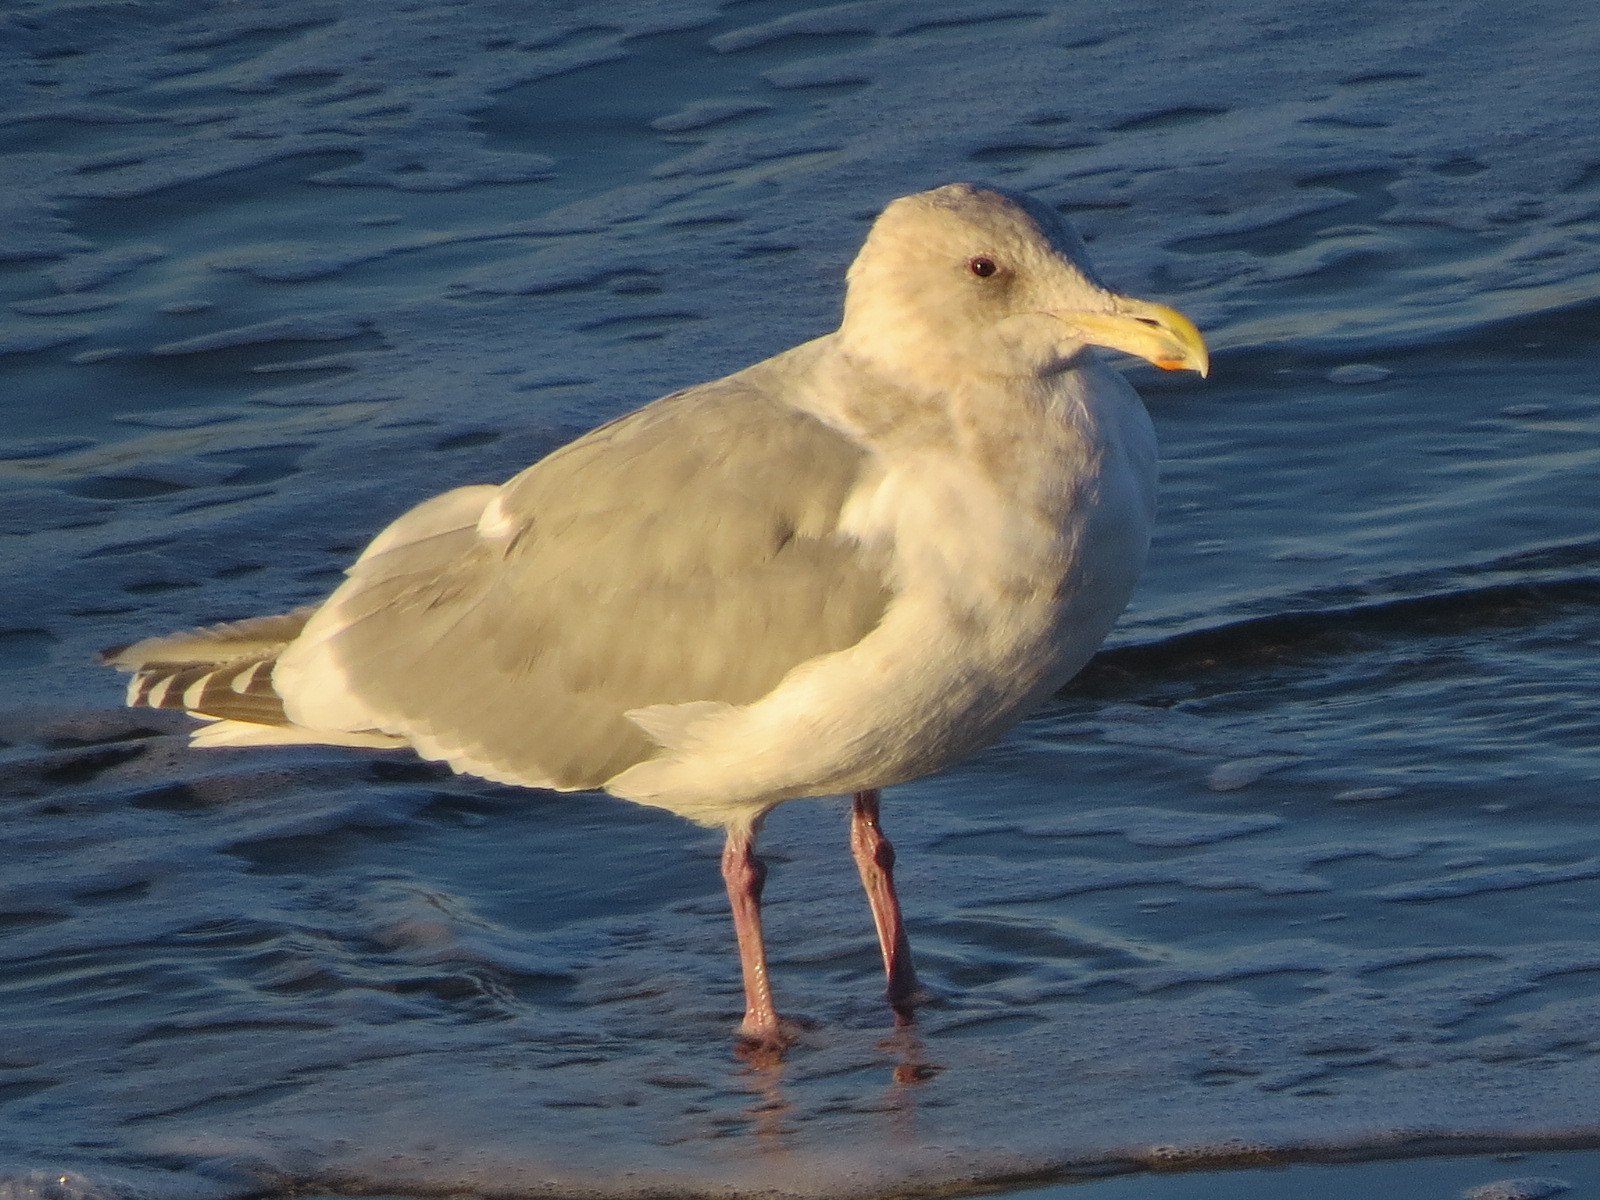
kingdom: Animalia
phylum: Chordata
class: Aves
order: Charadriiformes
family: Laridae
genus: Larus
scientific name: Larus glaucescens
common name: Glaucous-winged gull
